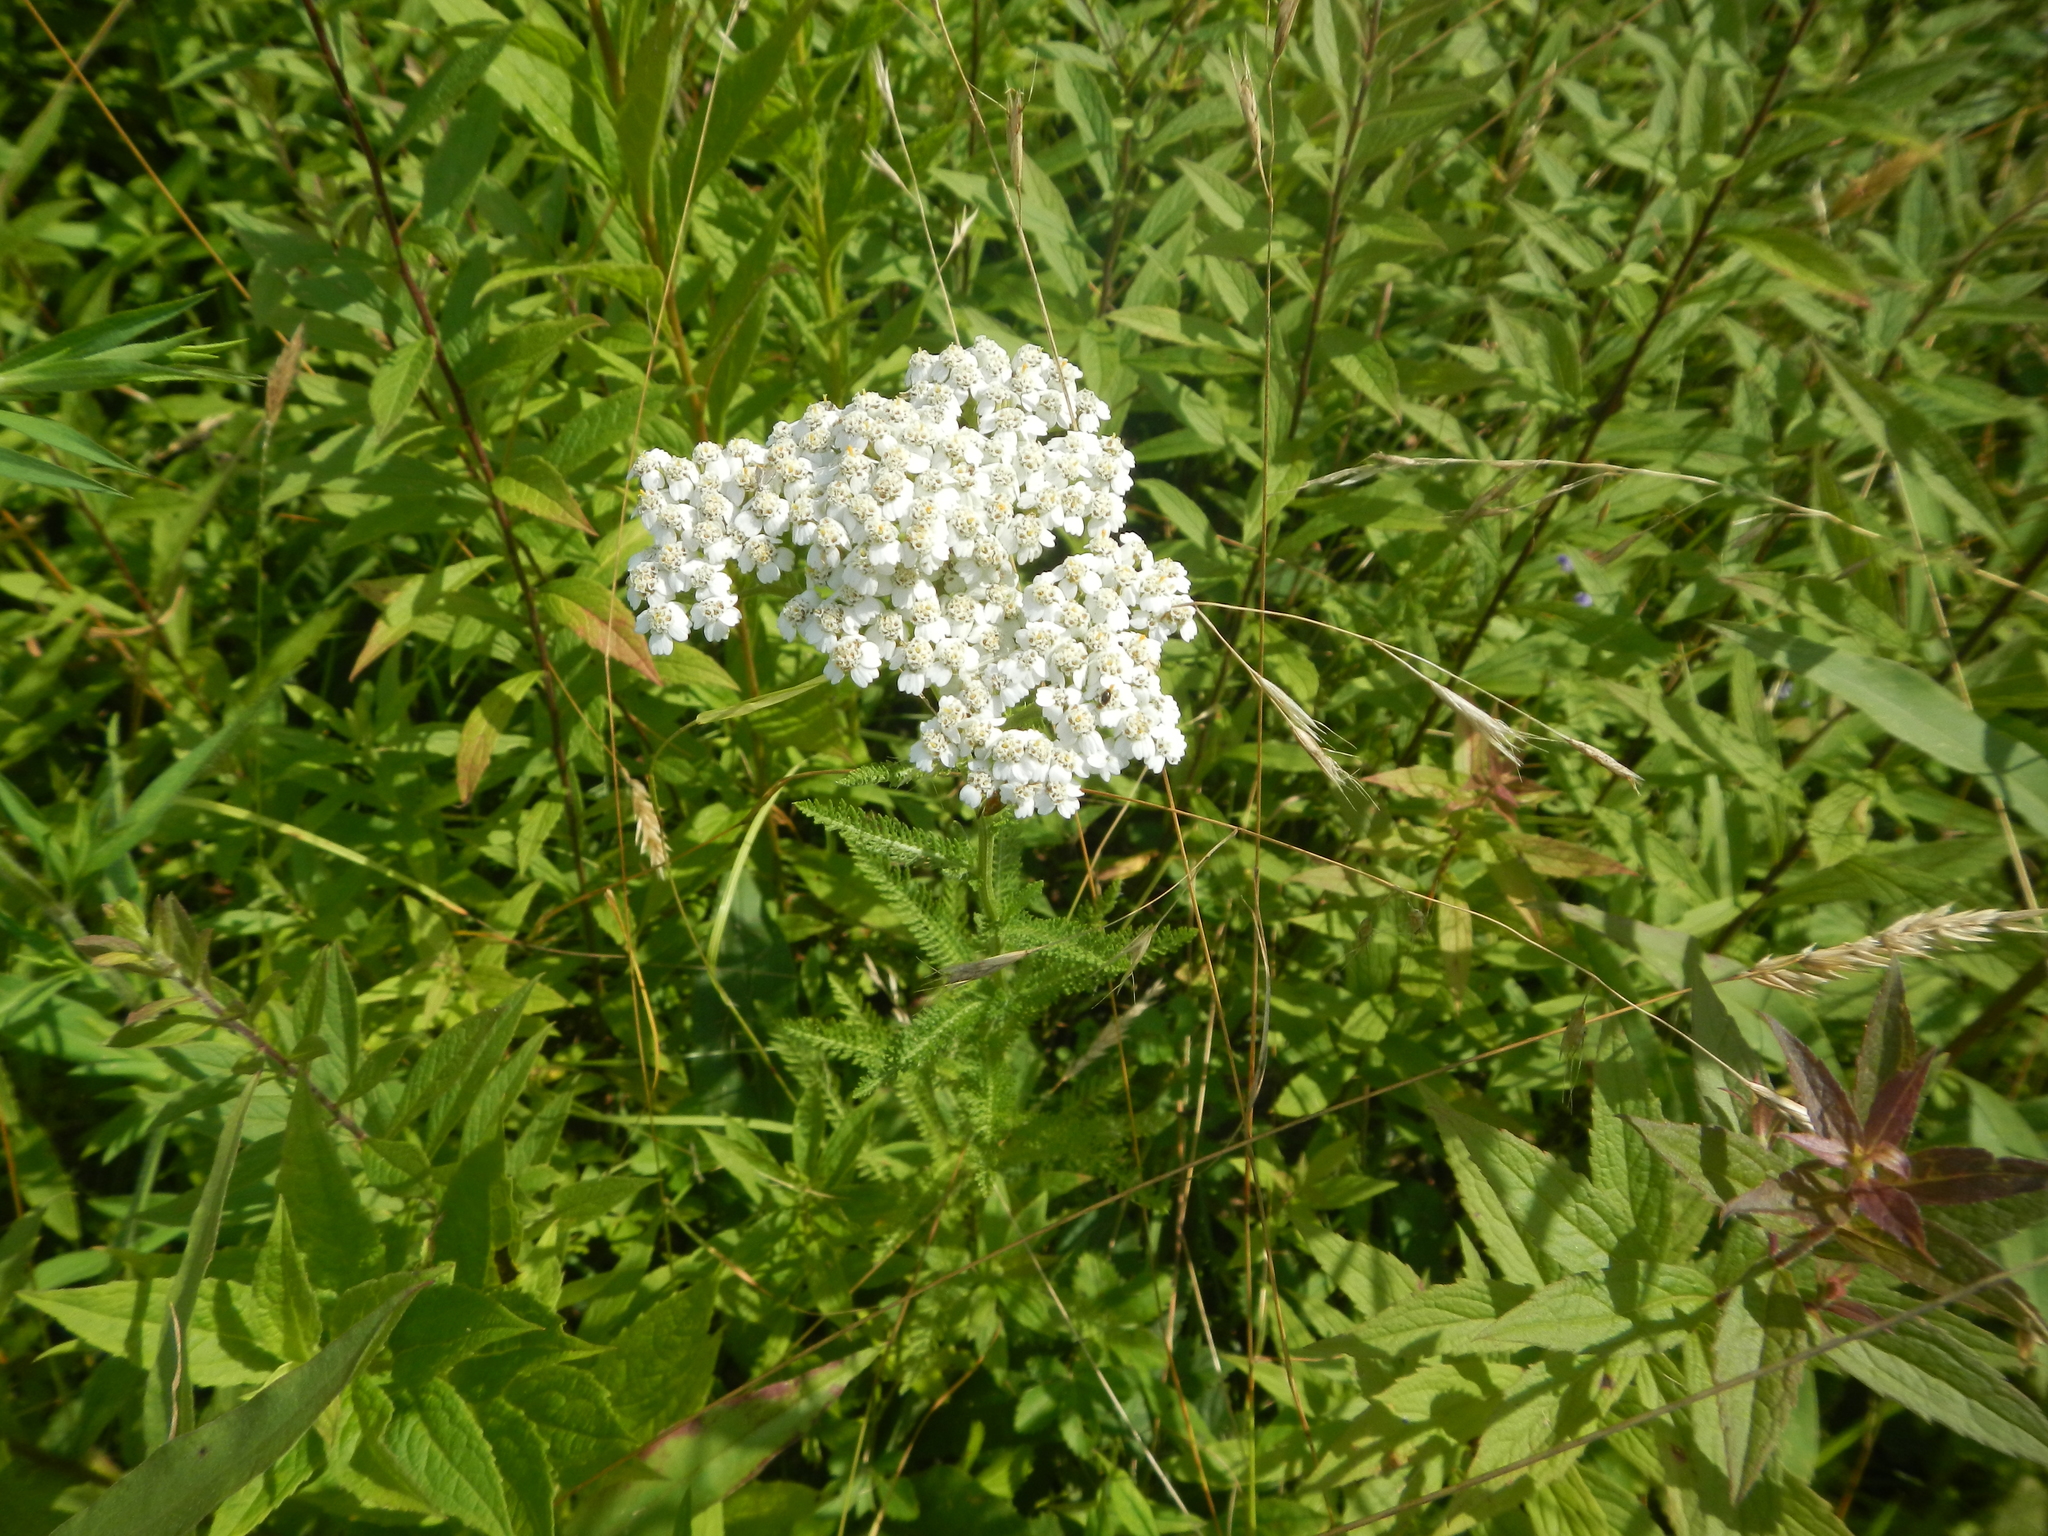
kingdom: Plantae
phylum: Tracheophyta
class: Magnoliopsida
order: Asterales
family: Asteraceae
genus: Achillea
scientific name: Achillea millefolium
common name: Yarrow
